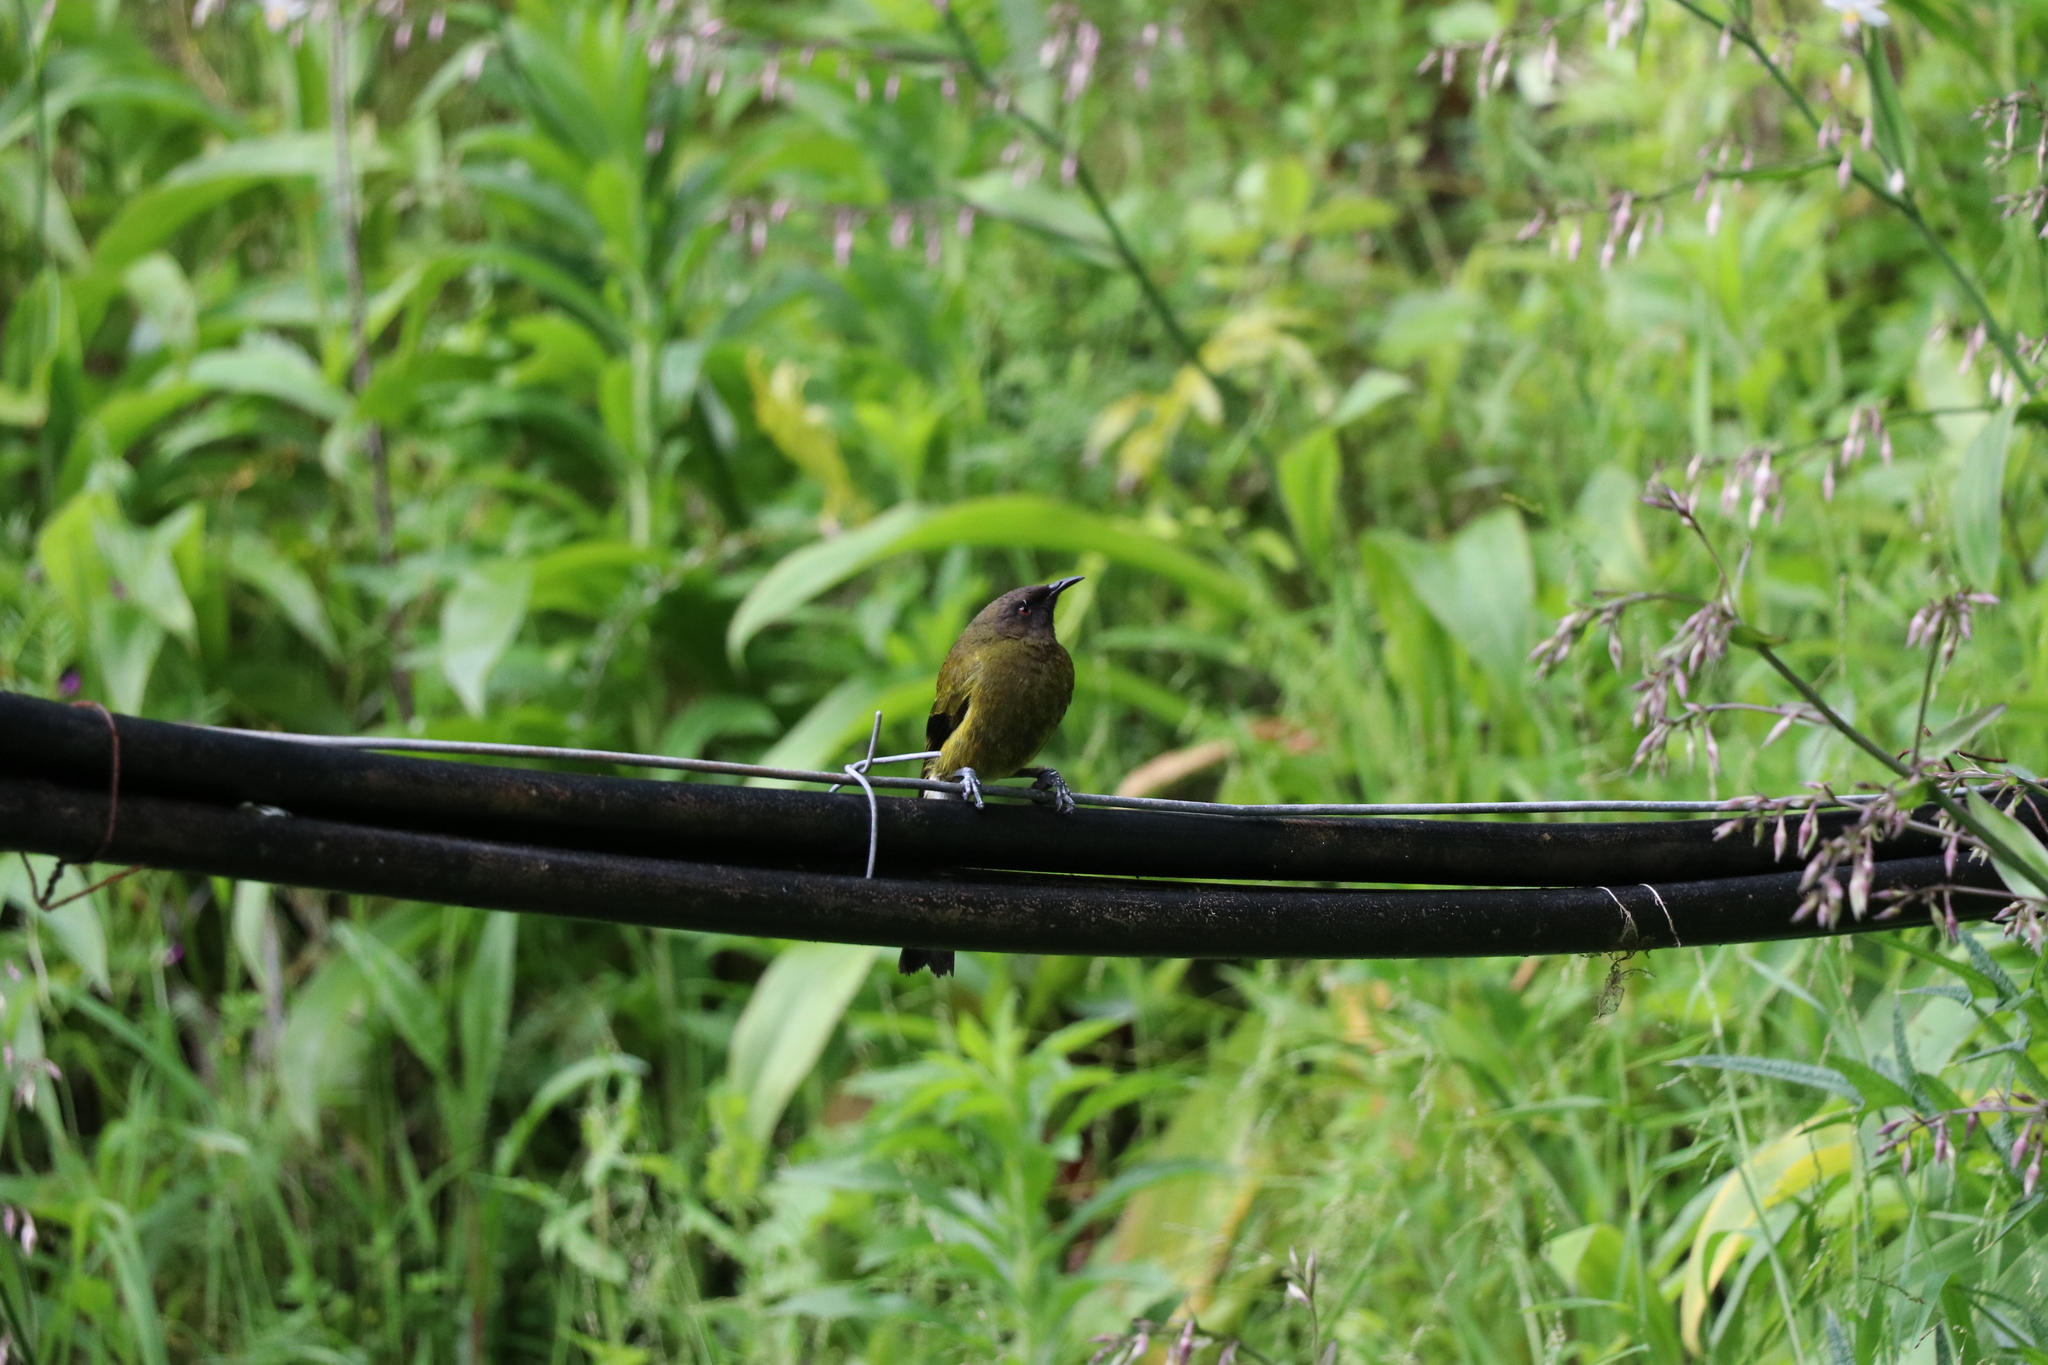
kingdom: Animalia
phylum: Chordata
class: Aves
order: Passeriformes
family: Meliphagidae
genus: Anthornis
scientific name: Anthornis melanura
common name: New zealand bellbird
